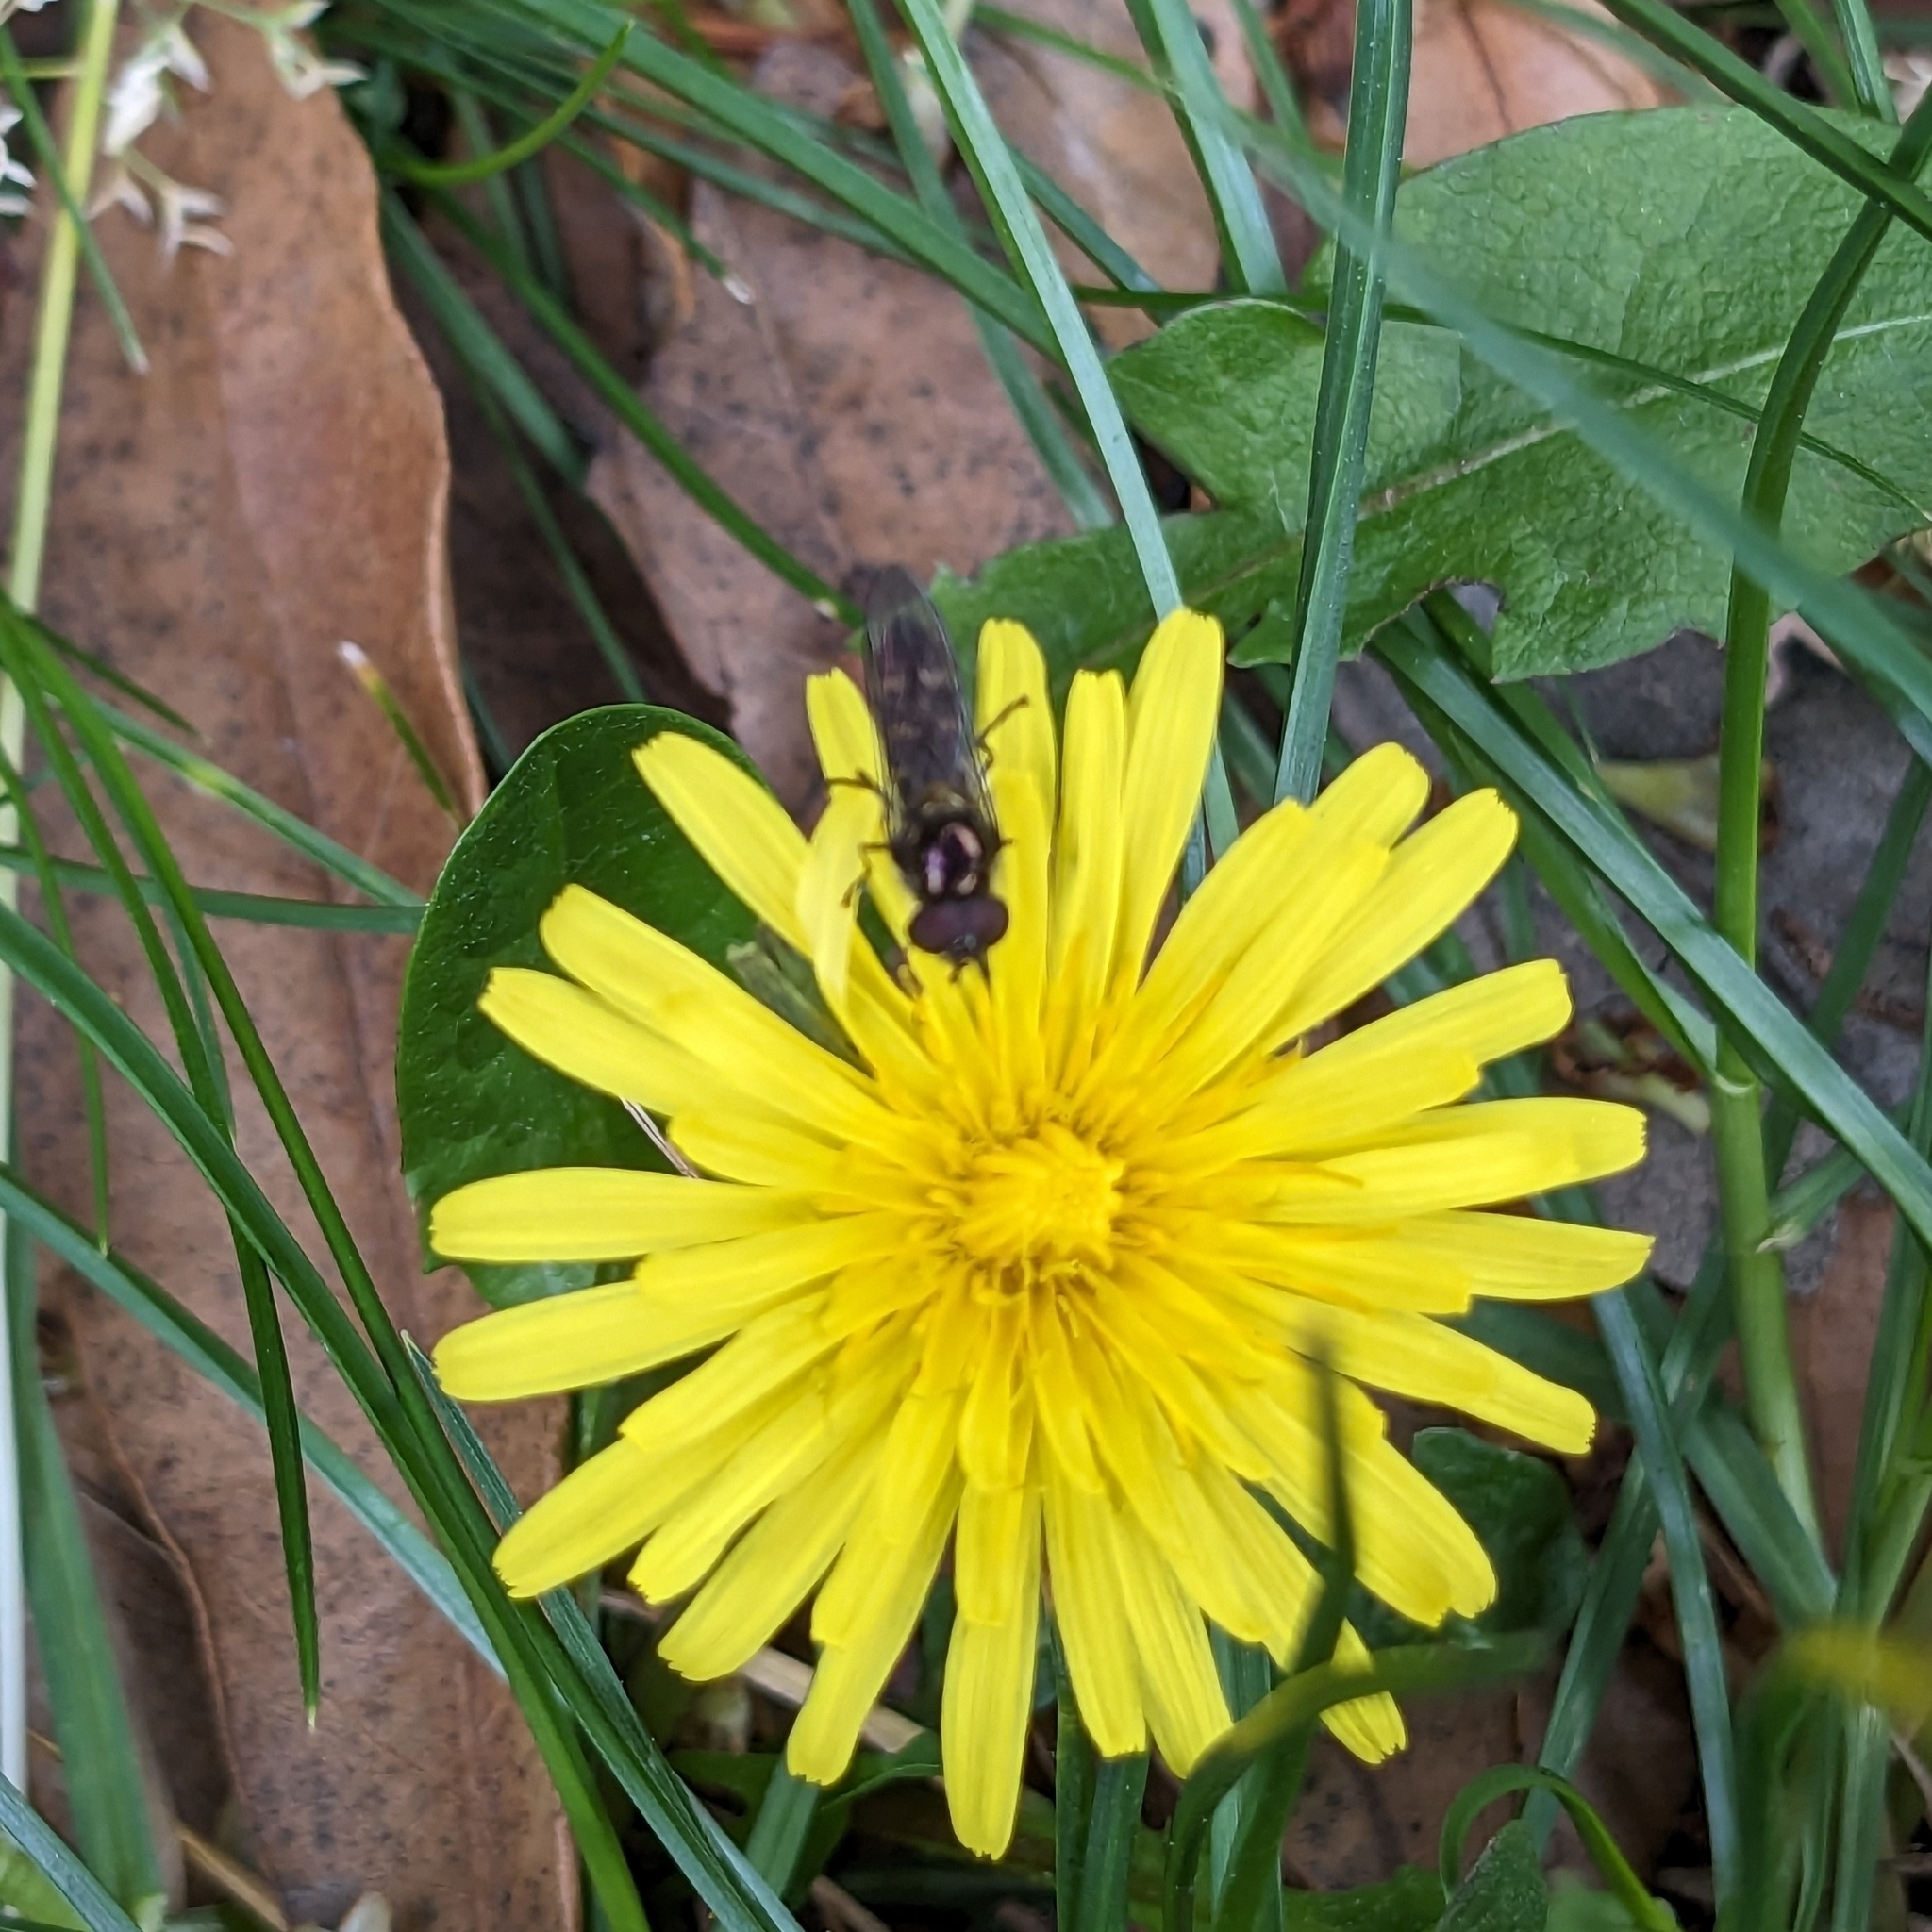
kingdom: Animalia
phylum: Arthropoda
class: Insecta
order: Diptera
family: Syrphidae
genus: Melangyna
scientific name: Melangyna novaezelandiae
